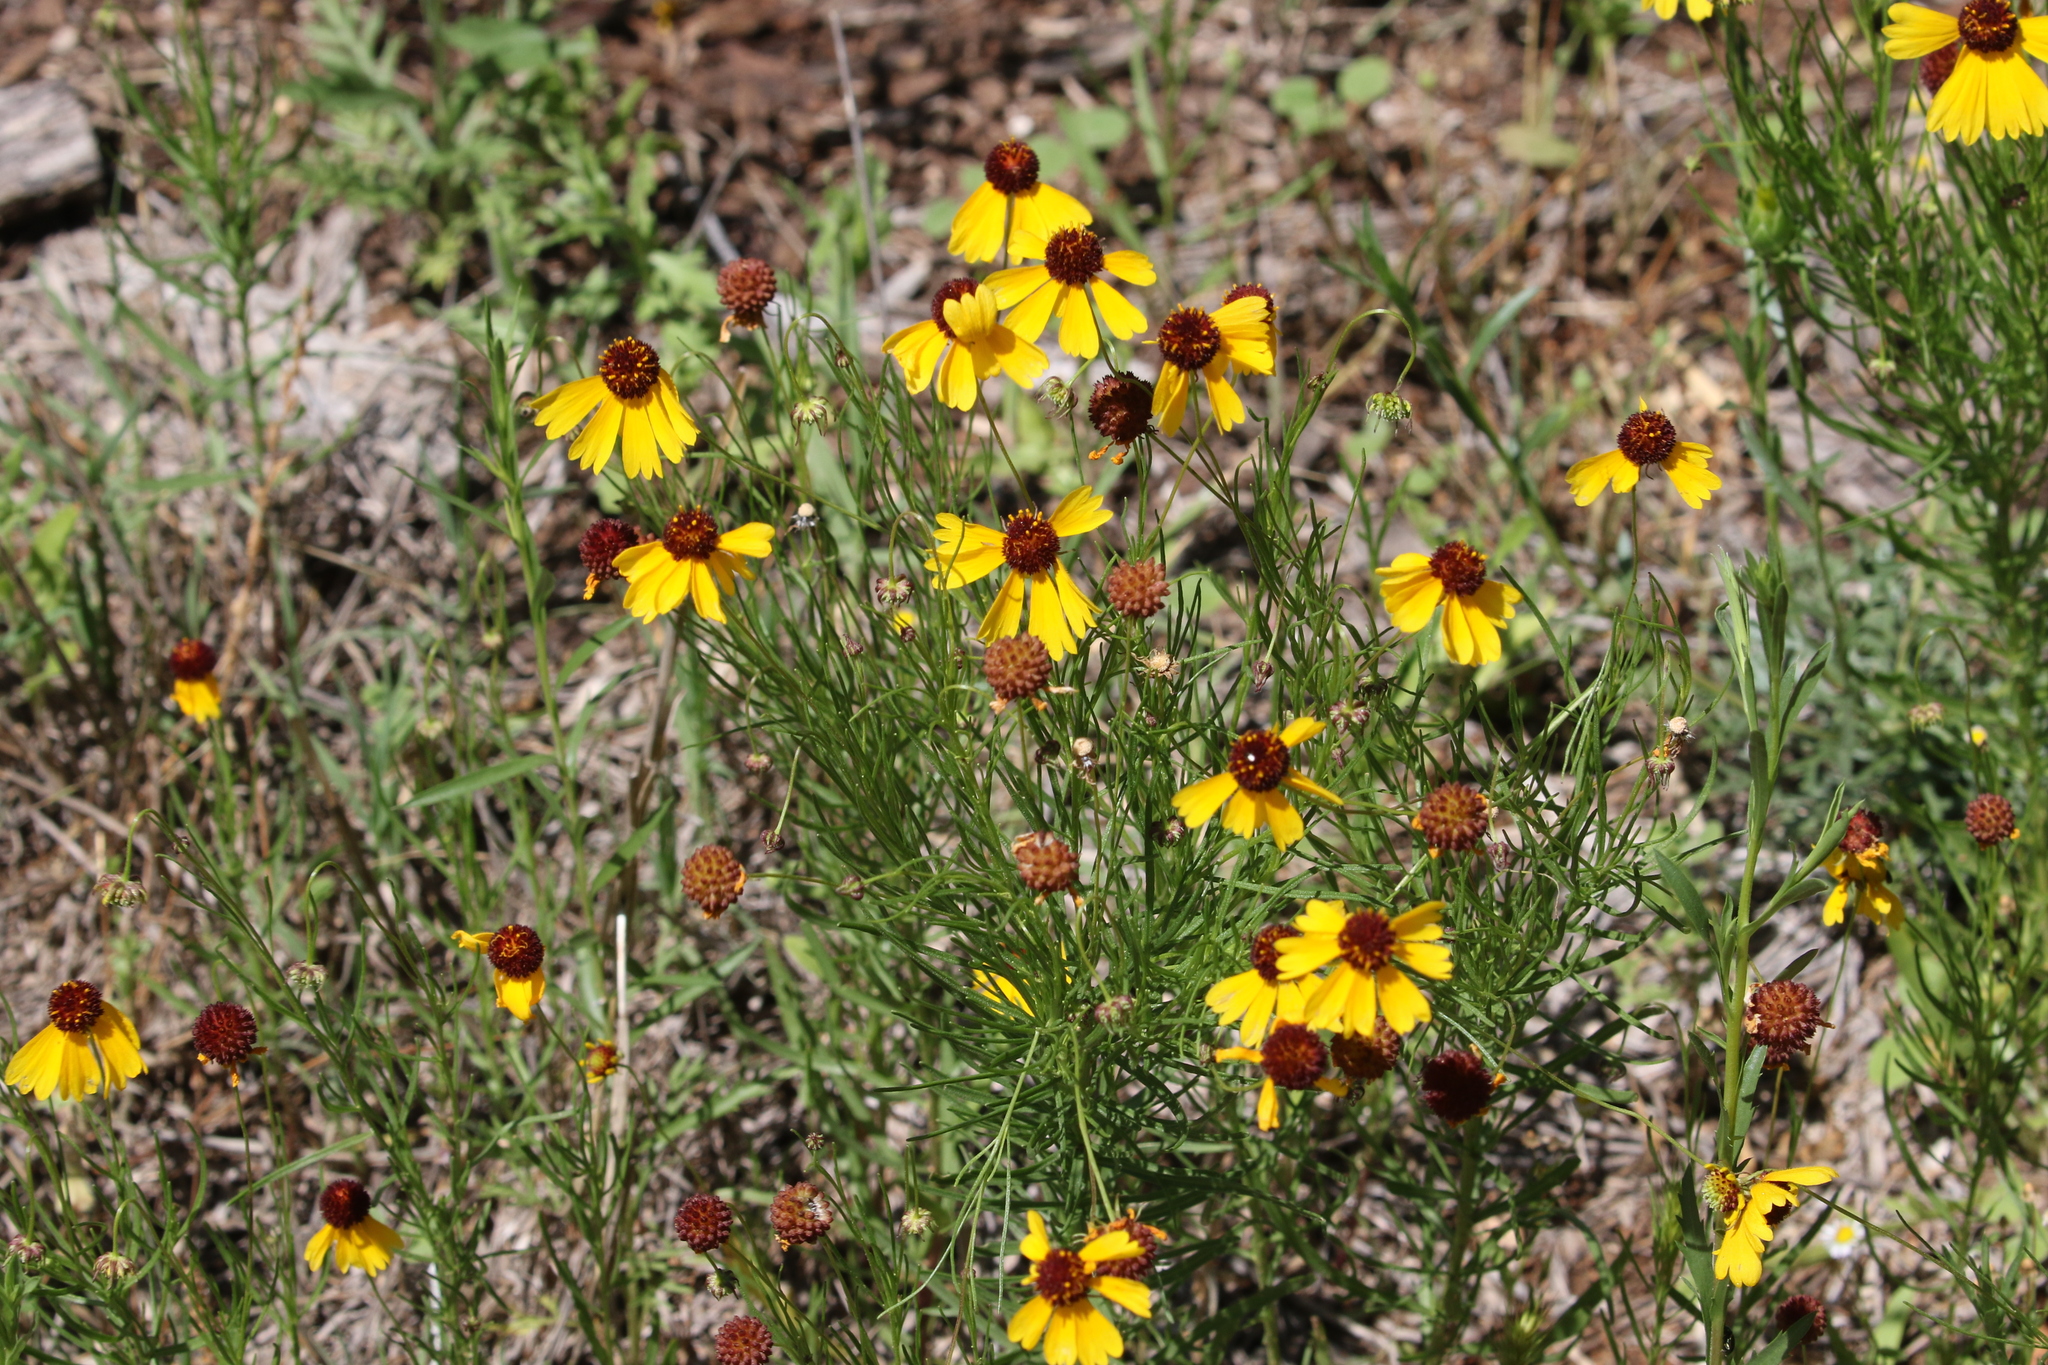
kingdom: Plantae
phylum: Tracheophyta
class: Magnoliopsida
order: Asterales
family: Asteraceae
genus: Helenium
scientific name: Helenium amarum
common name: Bitter sneezeweed
